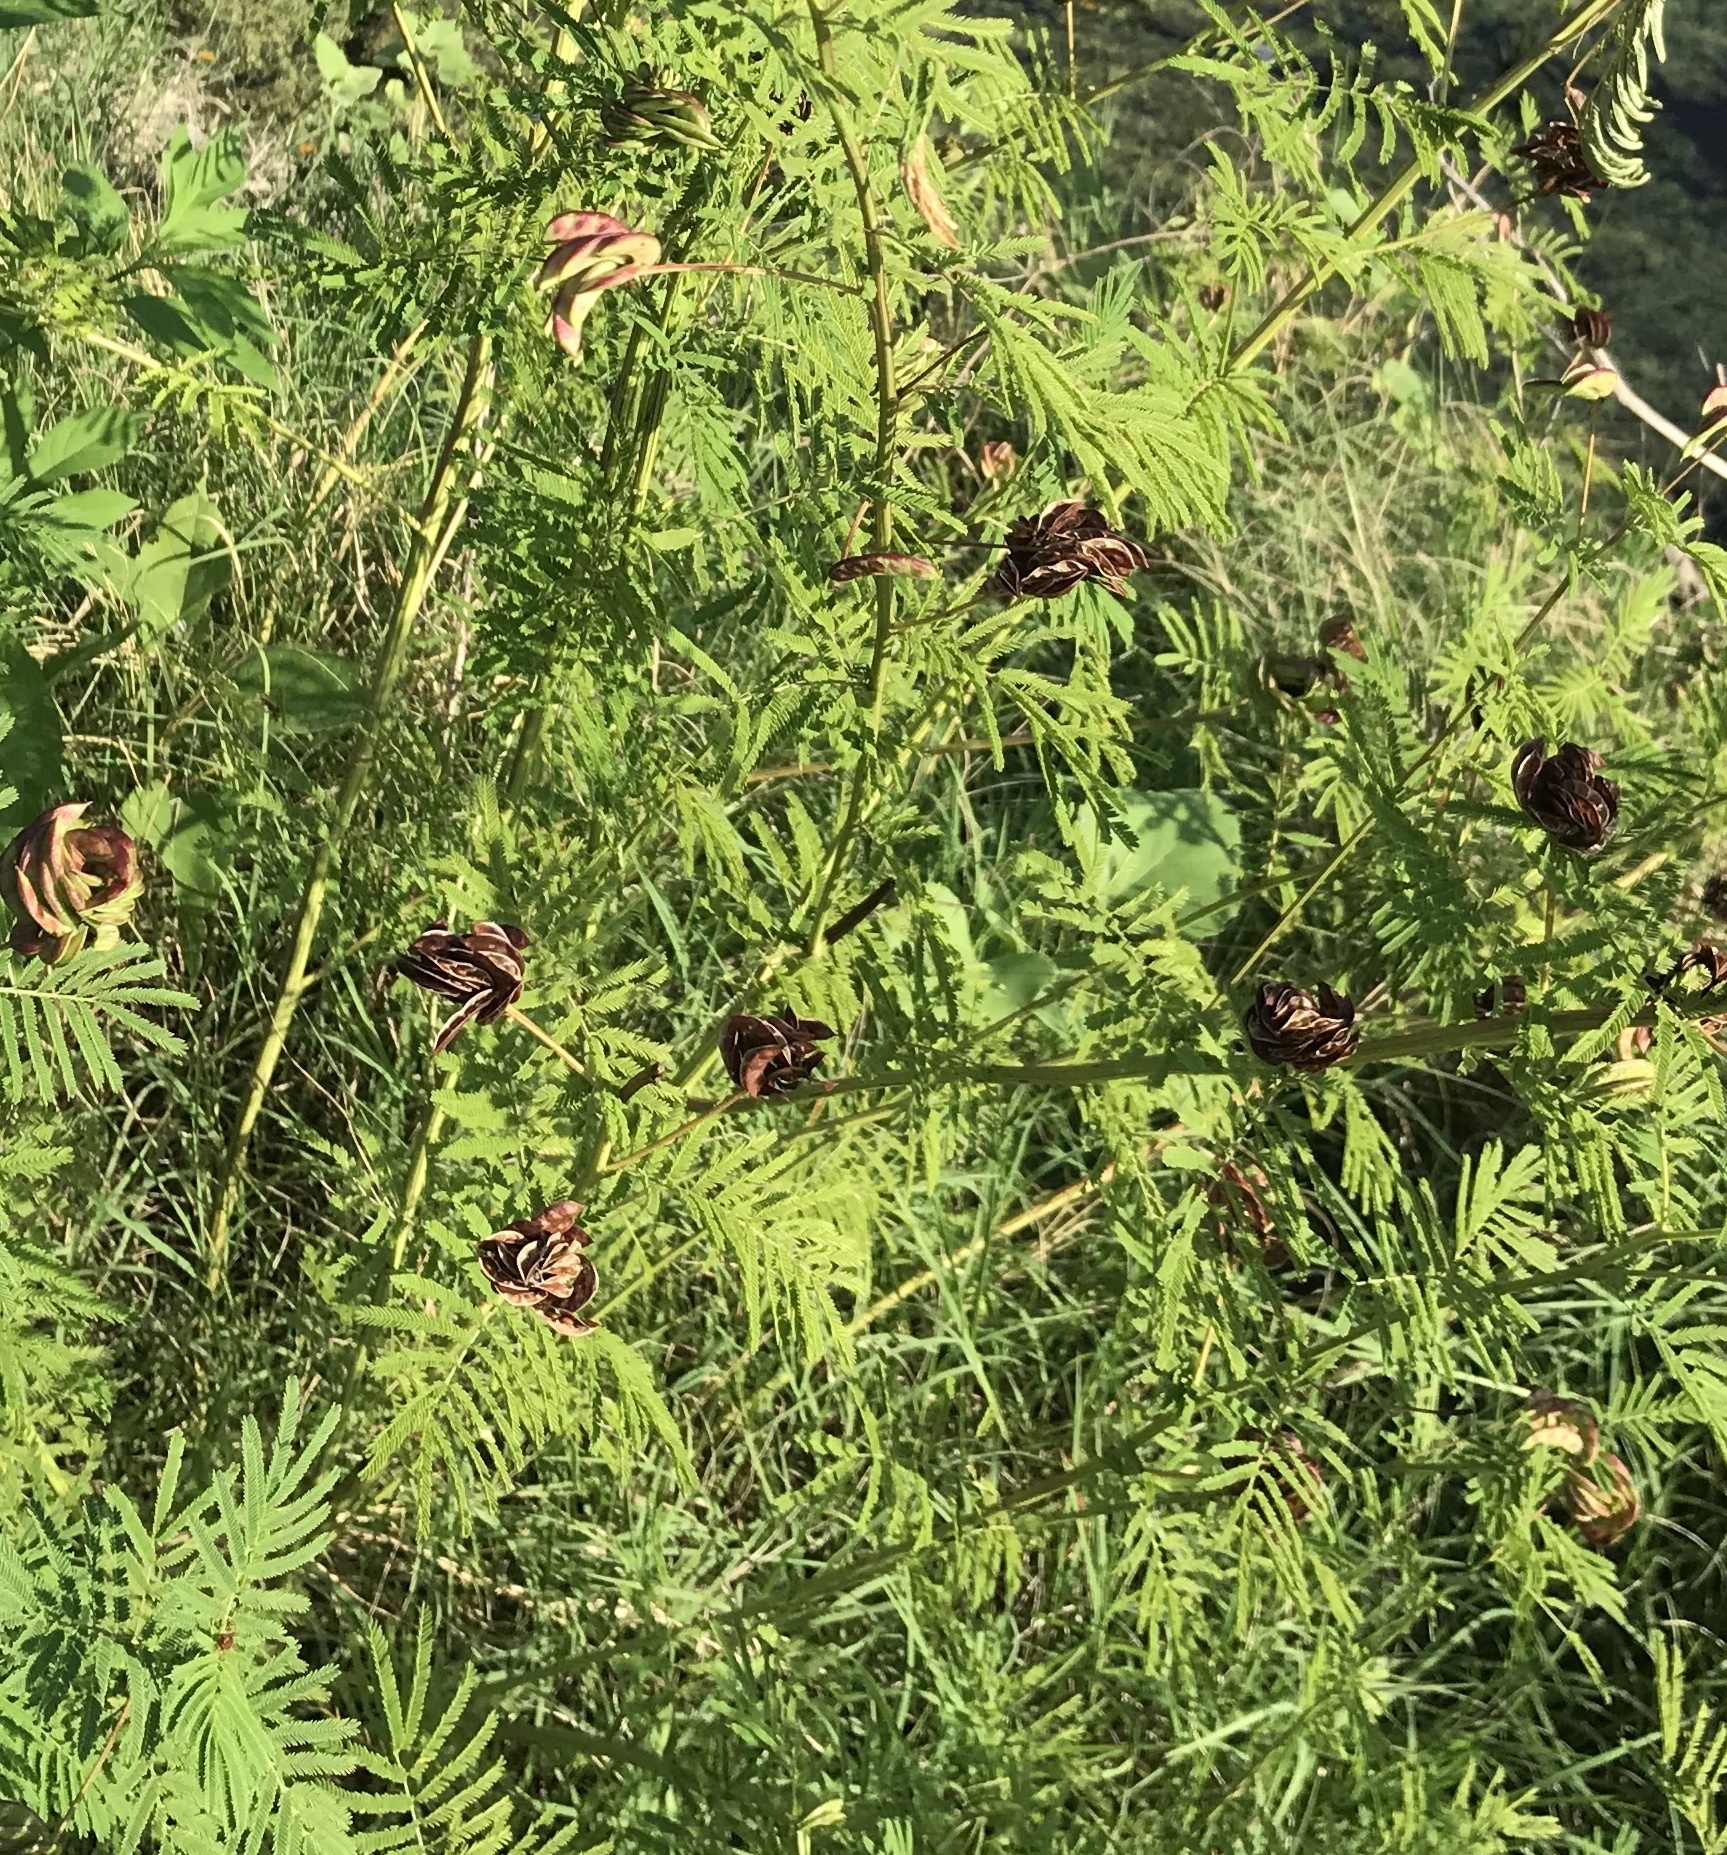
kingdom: Plantae
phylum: Tracheophyta
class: Magnoliopsida
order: Fabales
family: Fabaceae
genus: Desmanthus
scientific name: Desmanthus illinoensis
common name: Illinois bundle-flower
